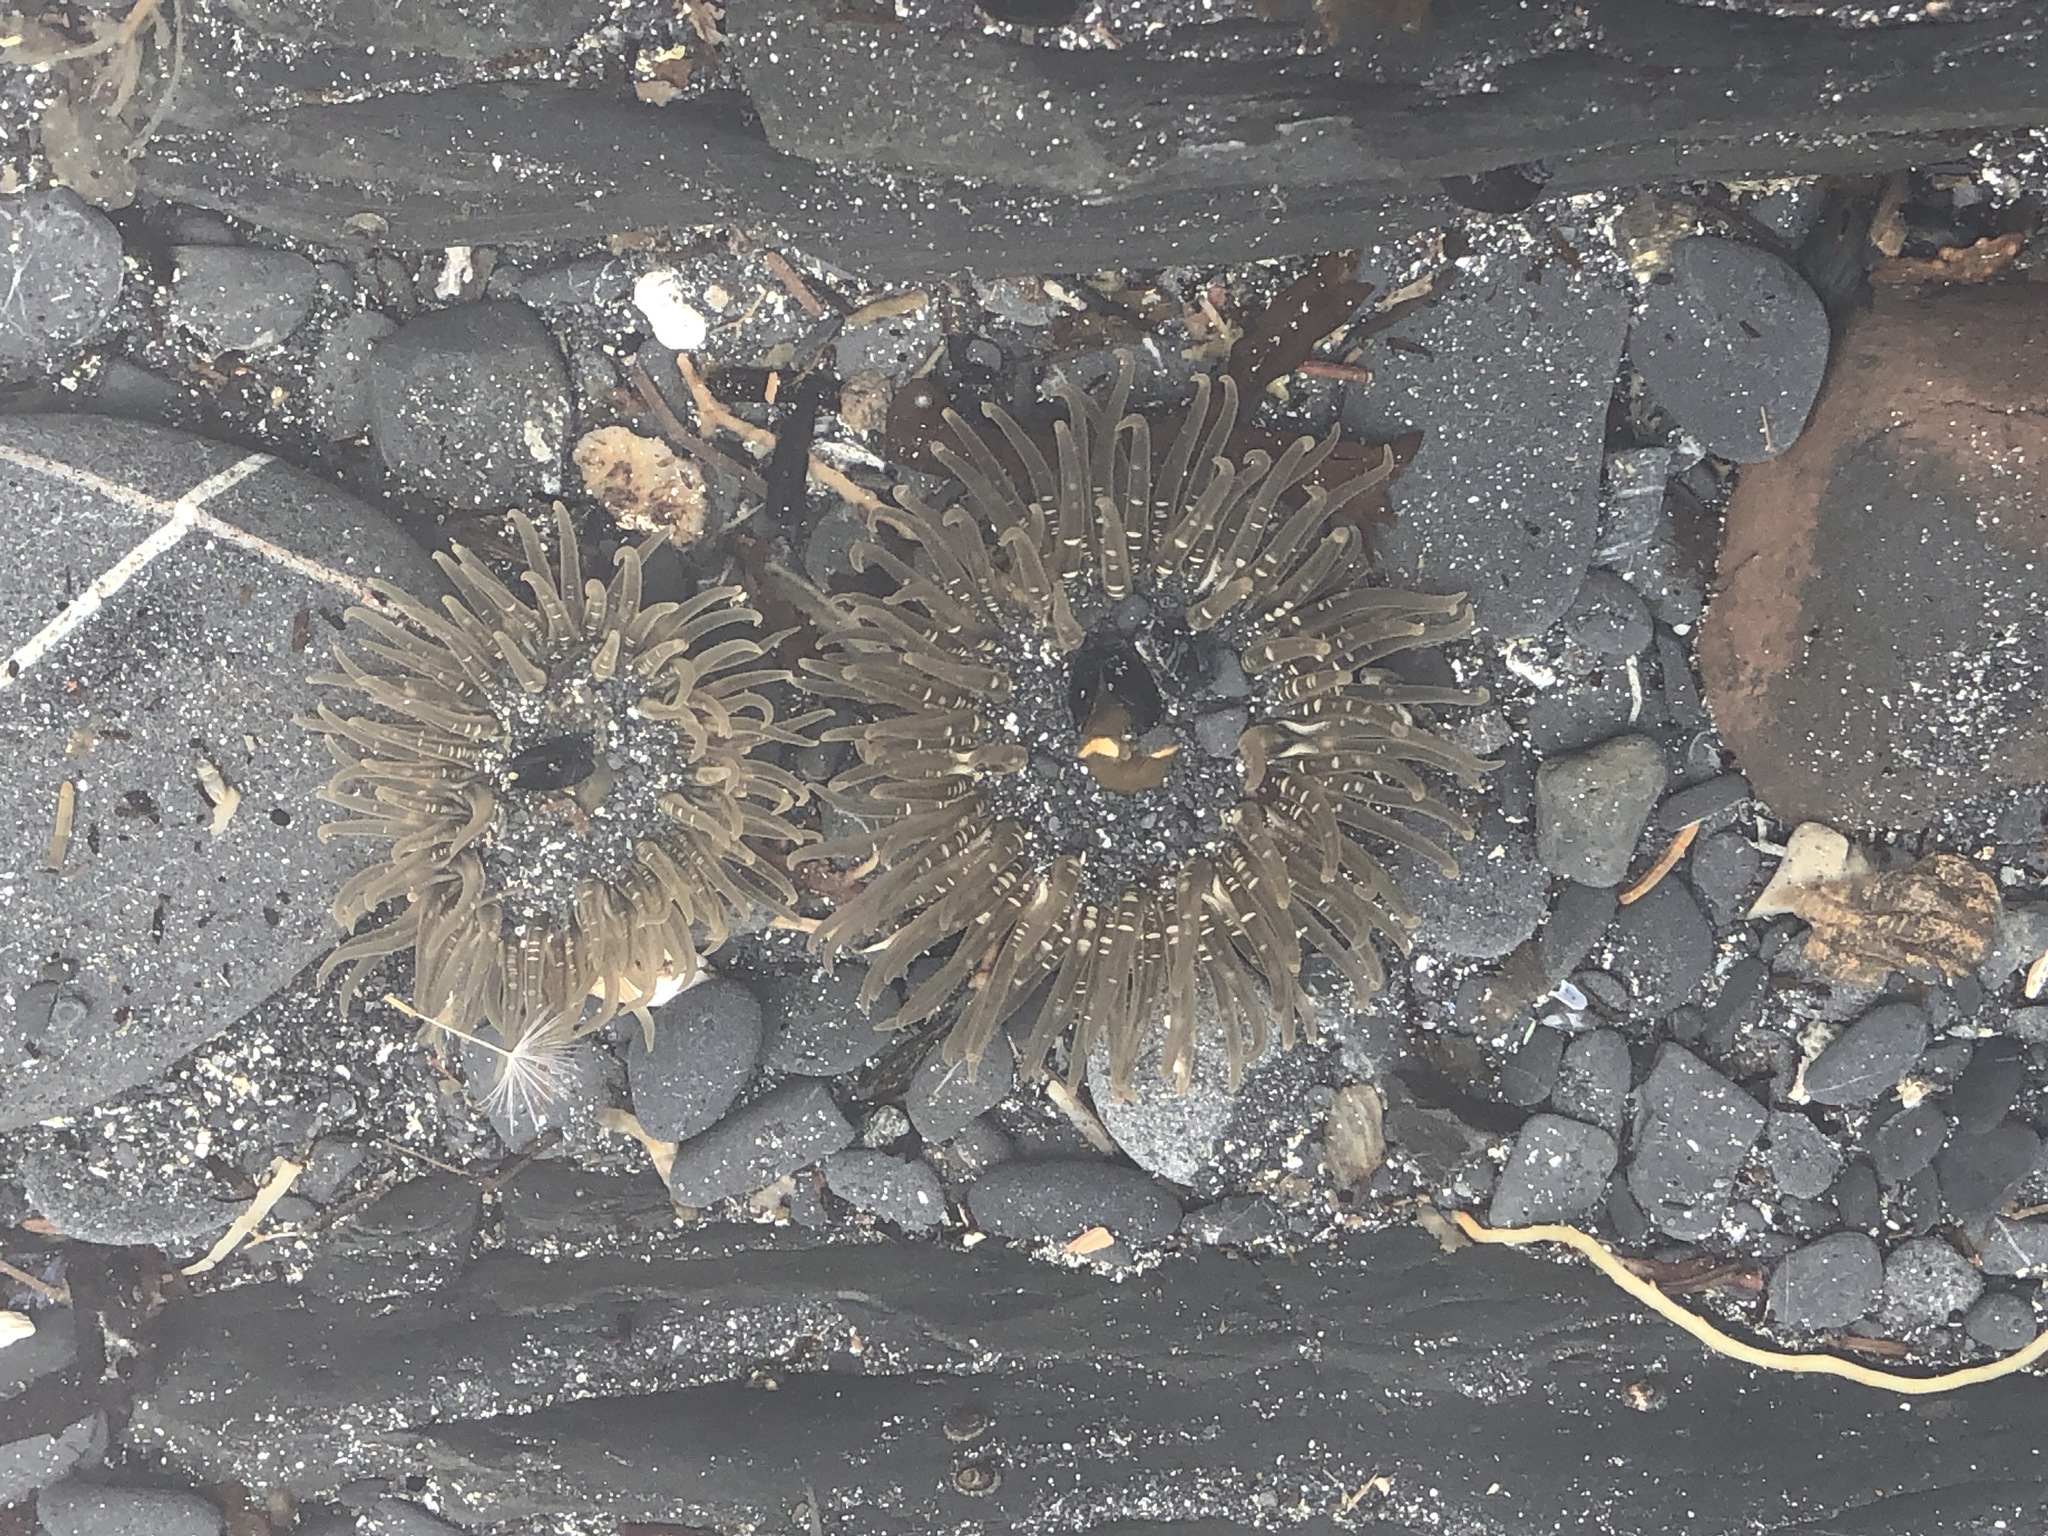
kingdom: Animalia
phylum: Cnidaria
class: Anthozoa
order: Actiniaria
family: Actiniidae
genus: Anthopleura
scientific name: Anthopleura artemisia
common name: Buried sea anemone
